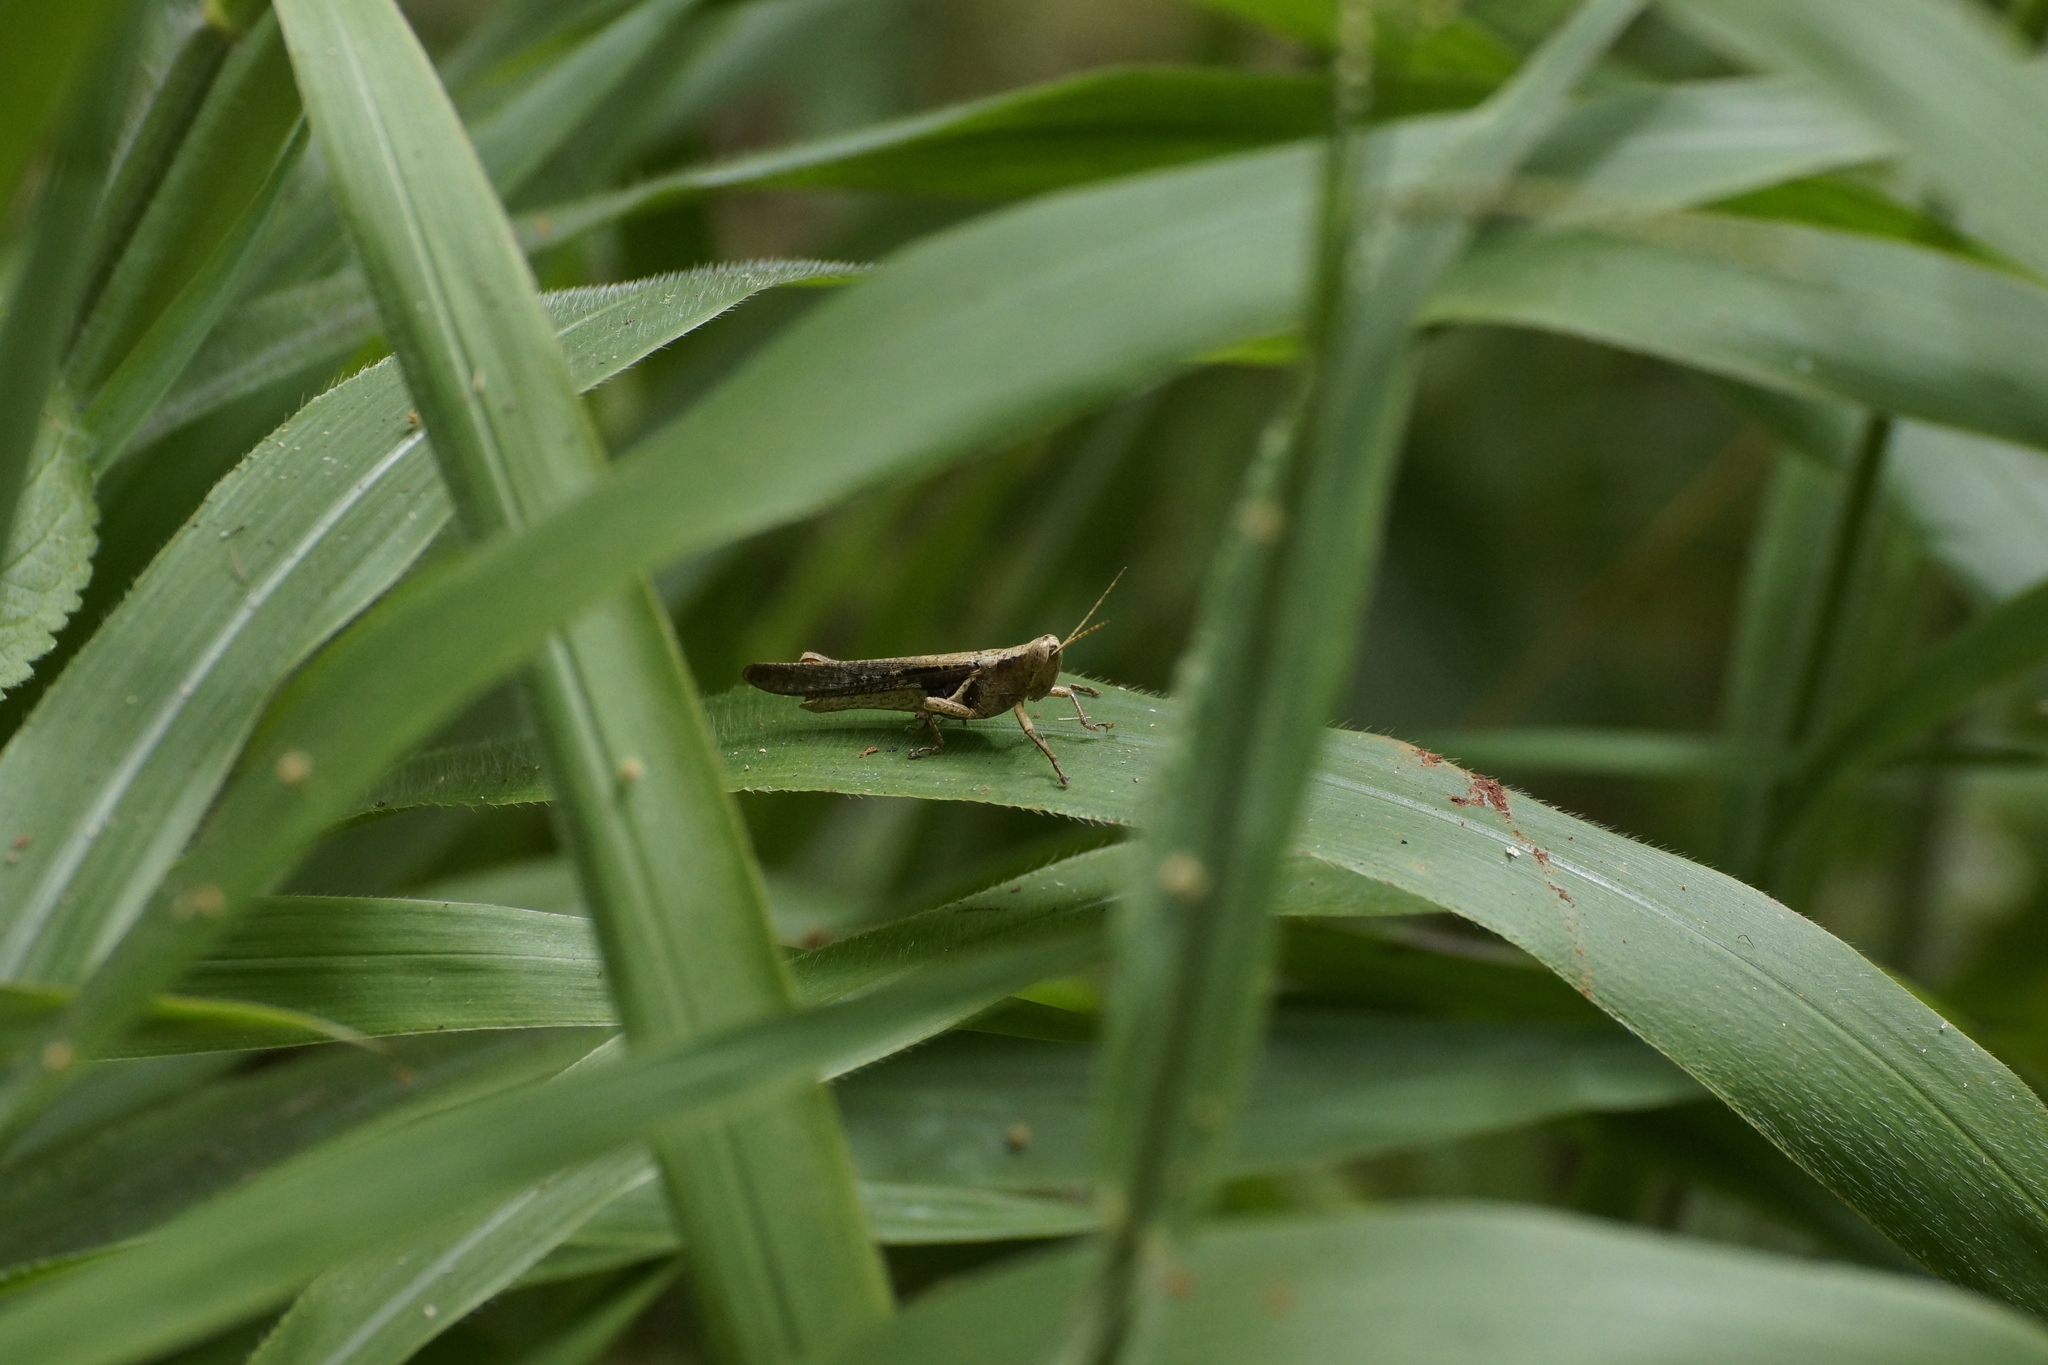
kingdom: Animalia
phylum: Arthropoda
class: Insecta
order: Orthoptera
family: Acrididae
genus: Stenocatantops
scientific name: Stenocatantops angustifrons
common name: Common tropical sharptail
